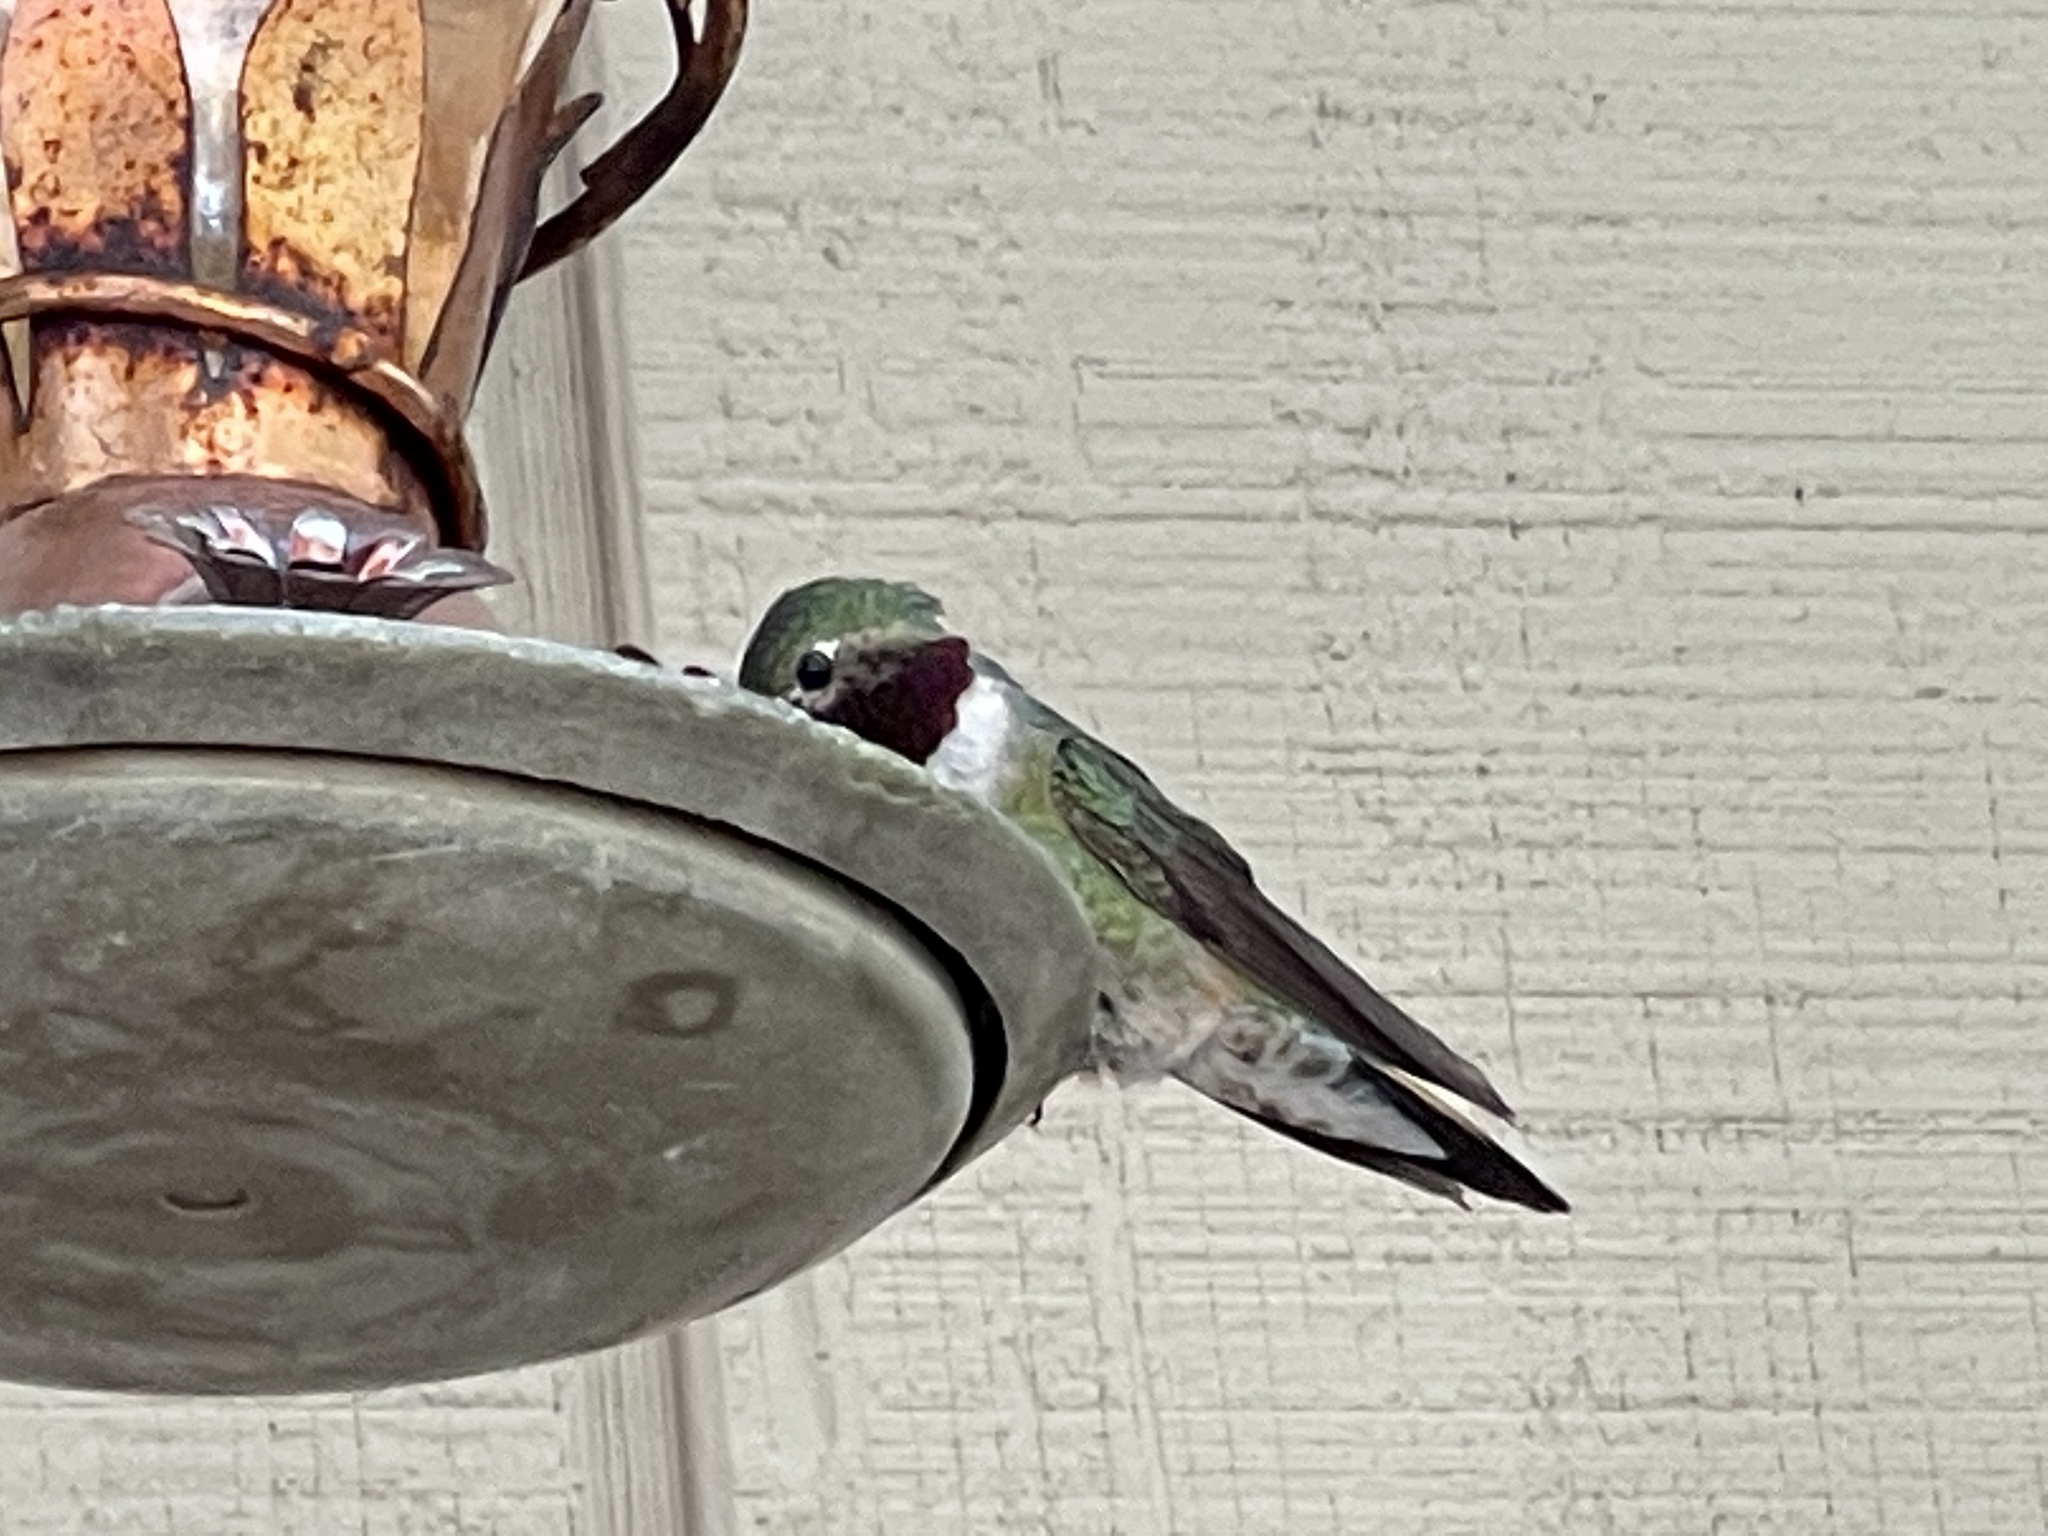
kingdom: Animalia
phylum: Chordata
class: Aves
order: Apodiformes
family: Trochilidae
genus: Selasphorus
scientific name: Selasphorus platycercus
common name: Broad-tailed hummingbird
